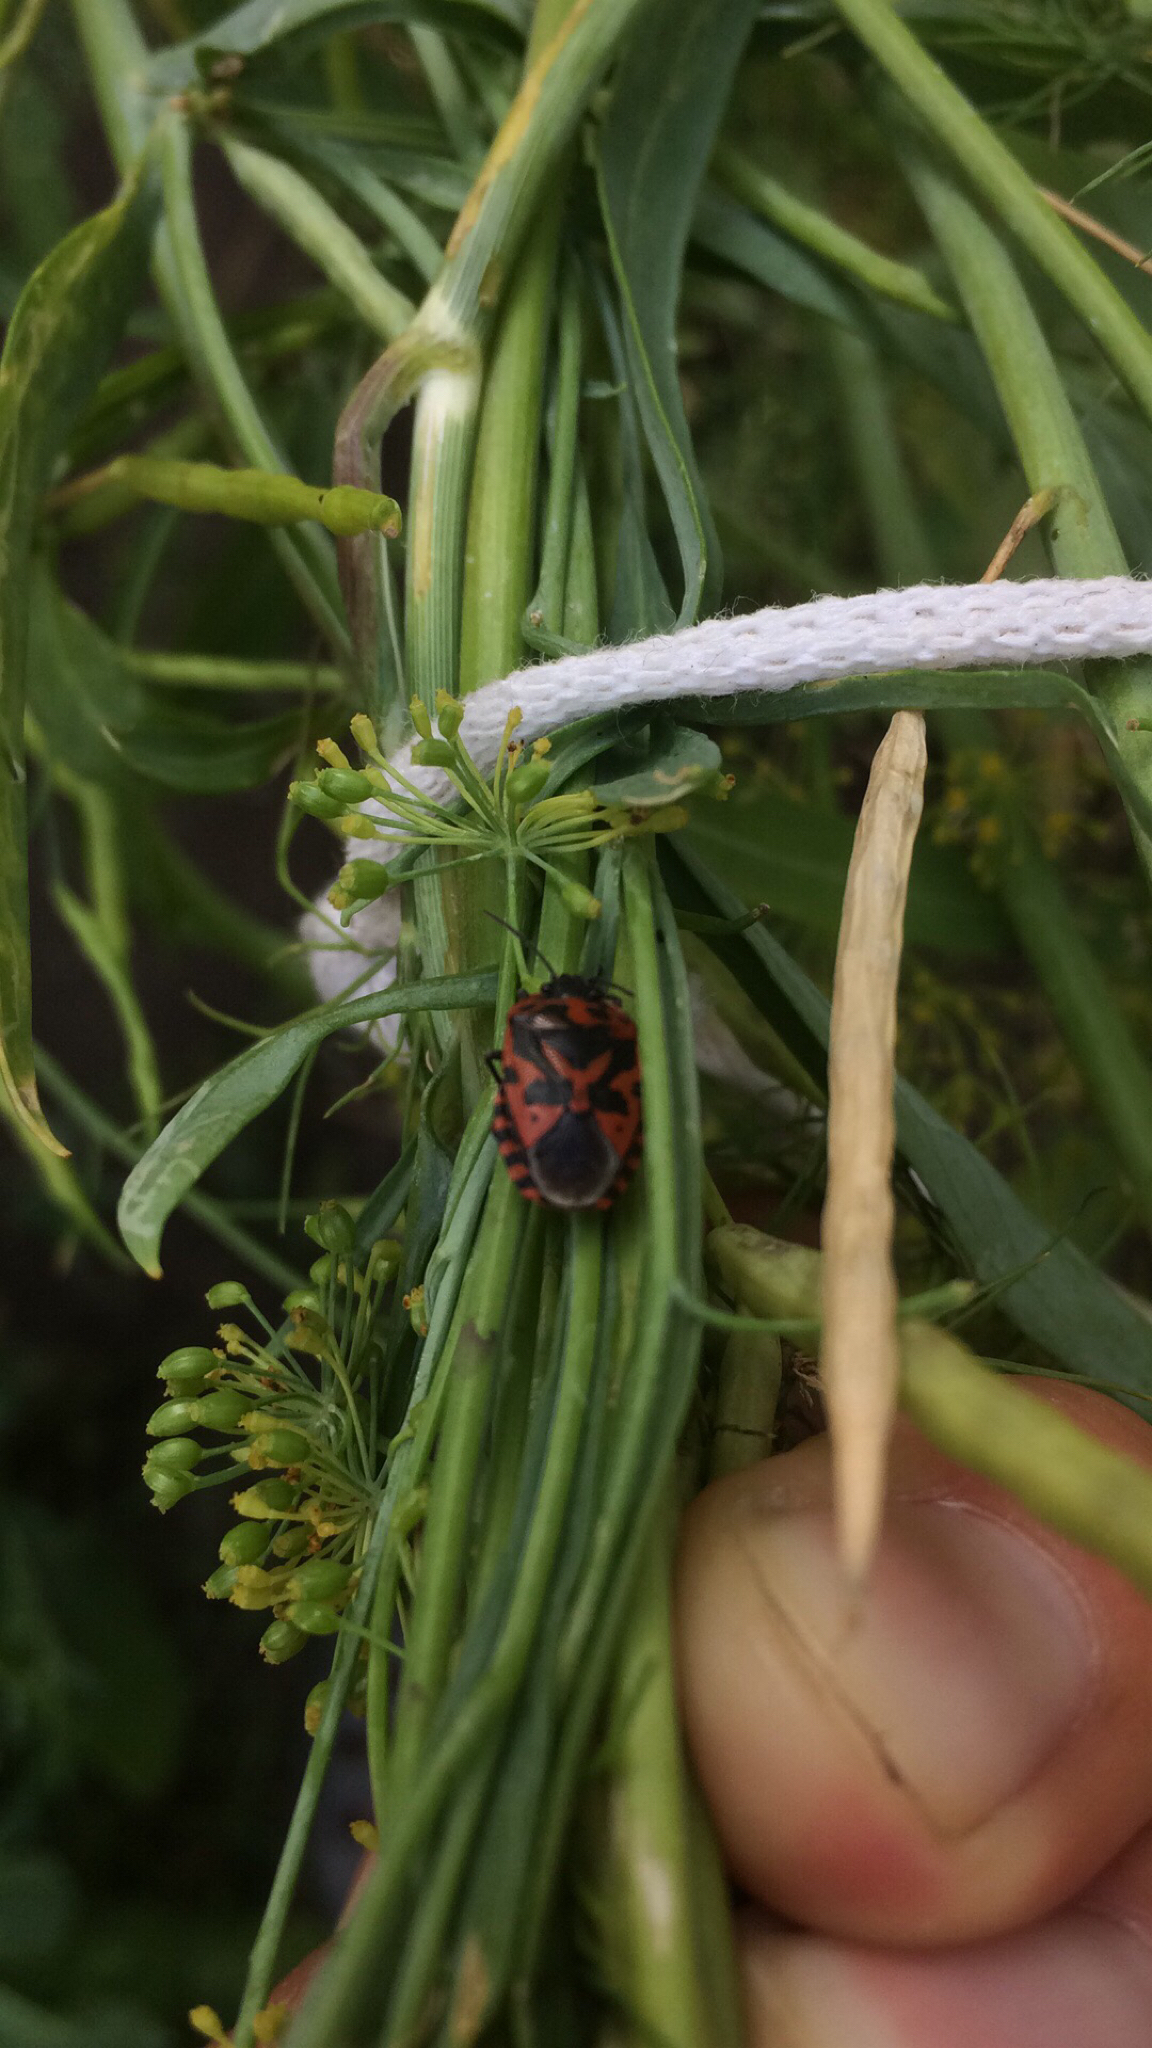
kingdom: Animalia
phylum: Arthropoda
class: Insecta
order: Hemiptera
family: Pentatomidae
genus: Eurydema
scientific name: Eurydema ventralis
